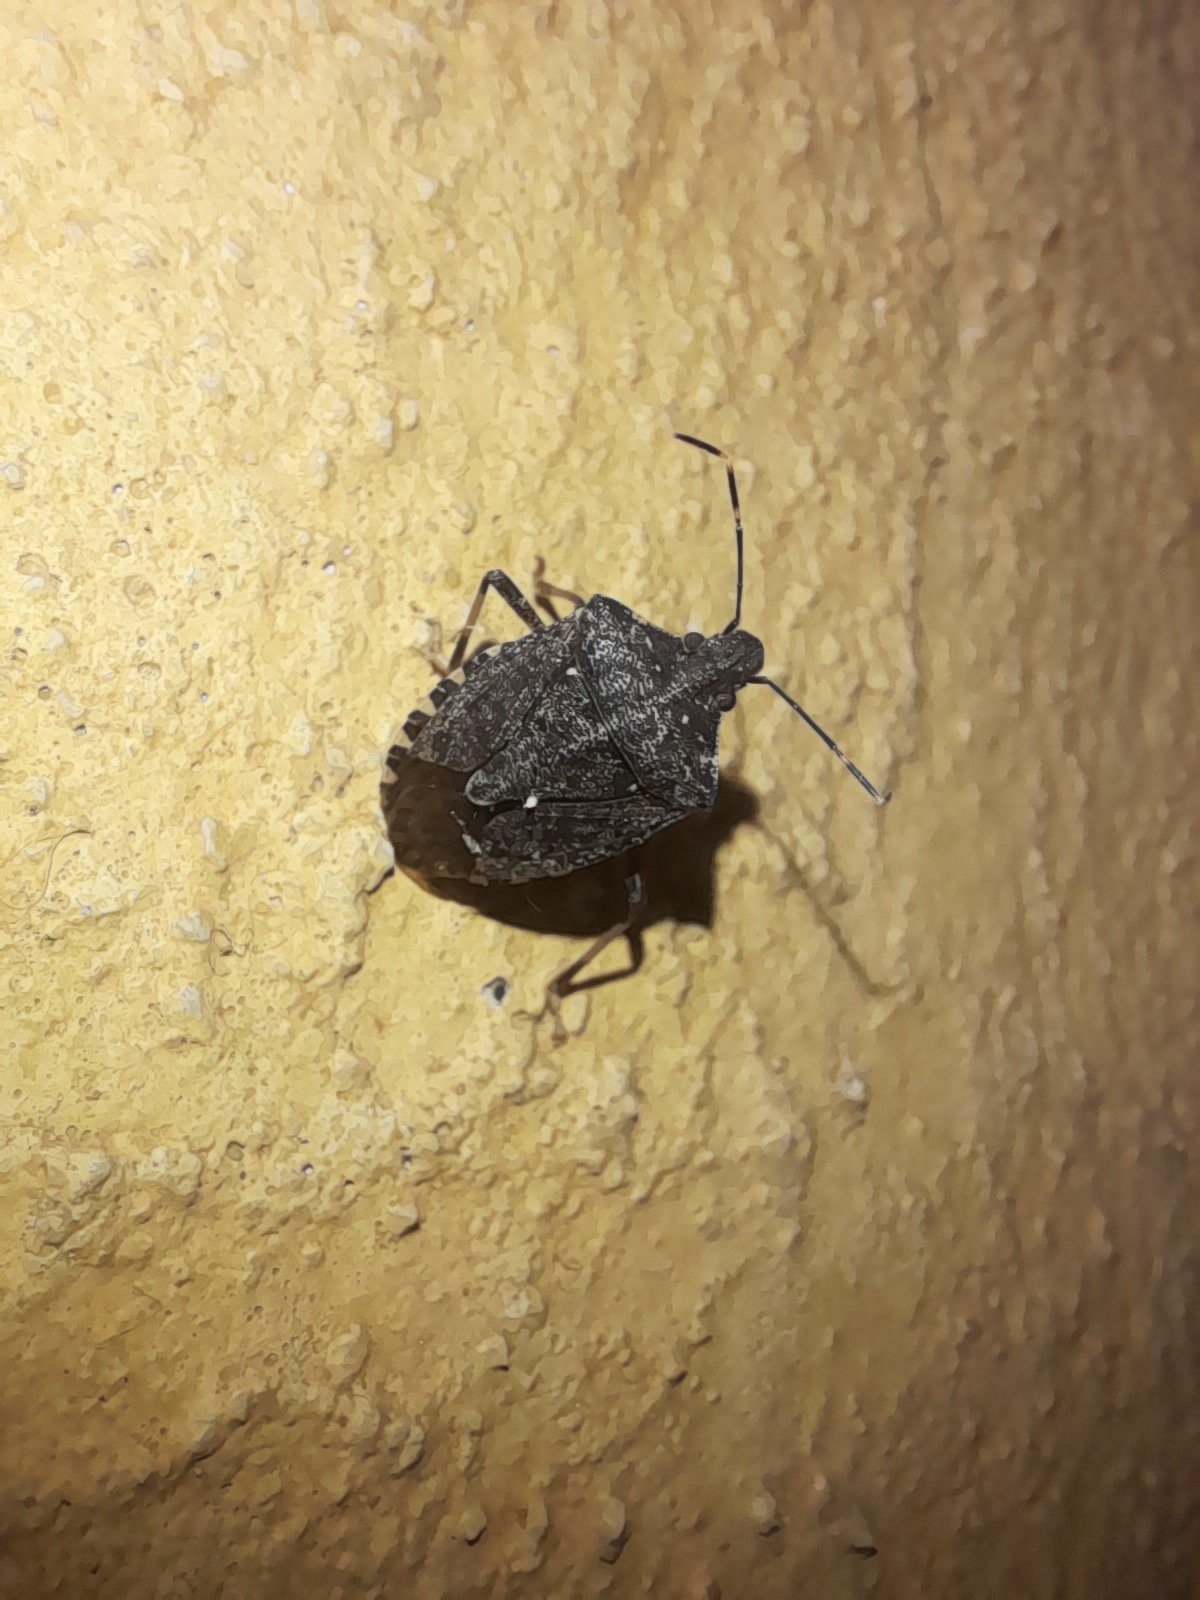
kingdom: Animalia
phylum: Arthropoda
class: Insecta
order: Hemiptera
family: Pentatomidae
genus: Halyomorpha
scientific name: Halyomorpha halys
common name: Brown marmorated stink bug
